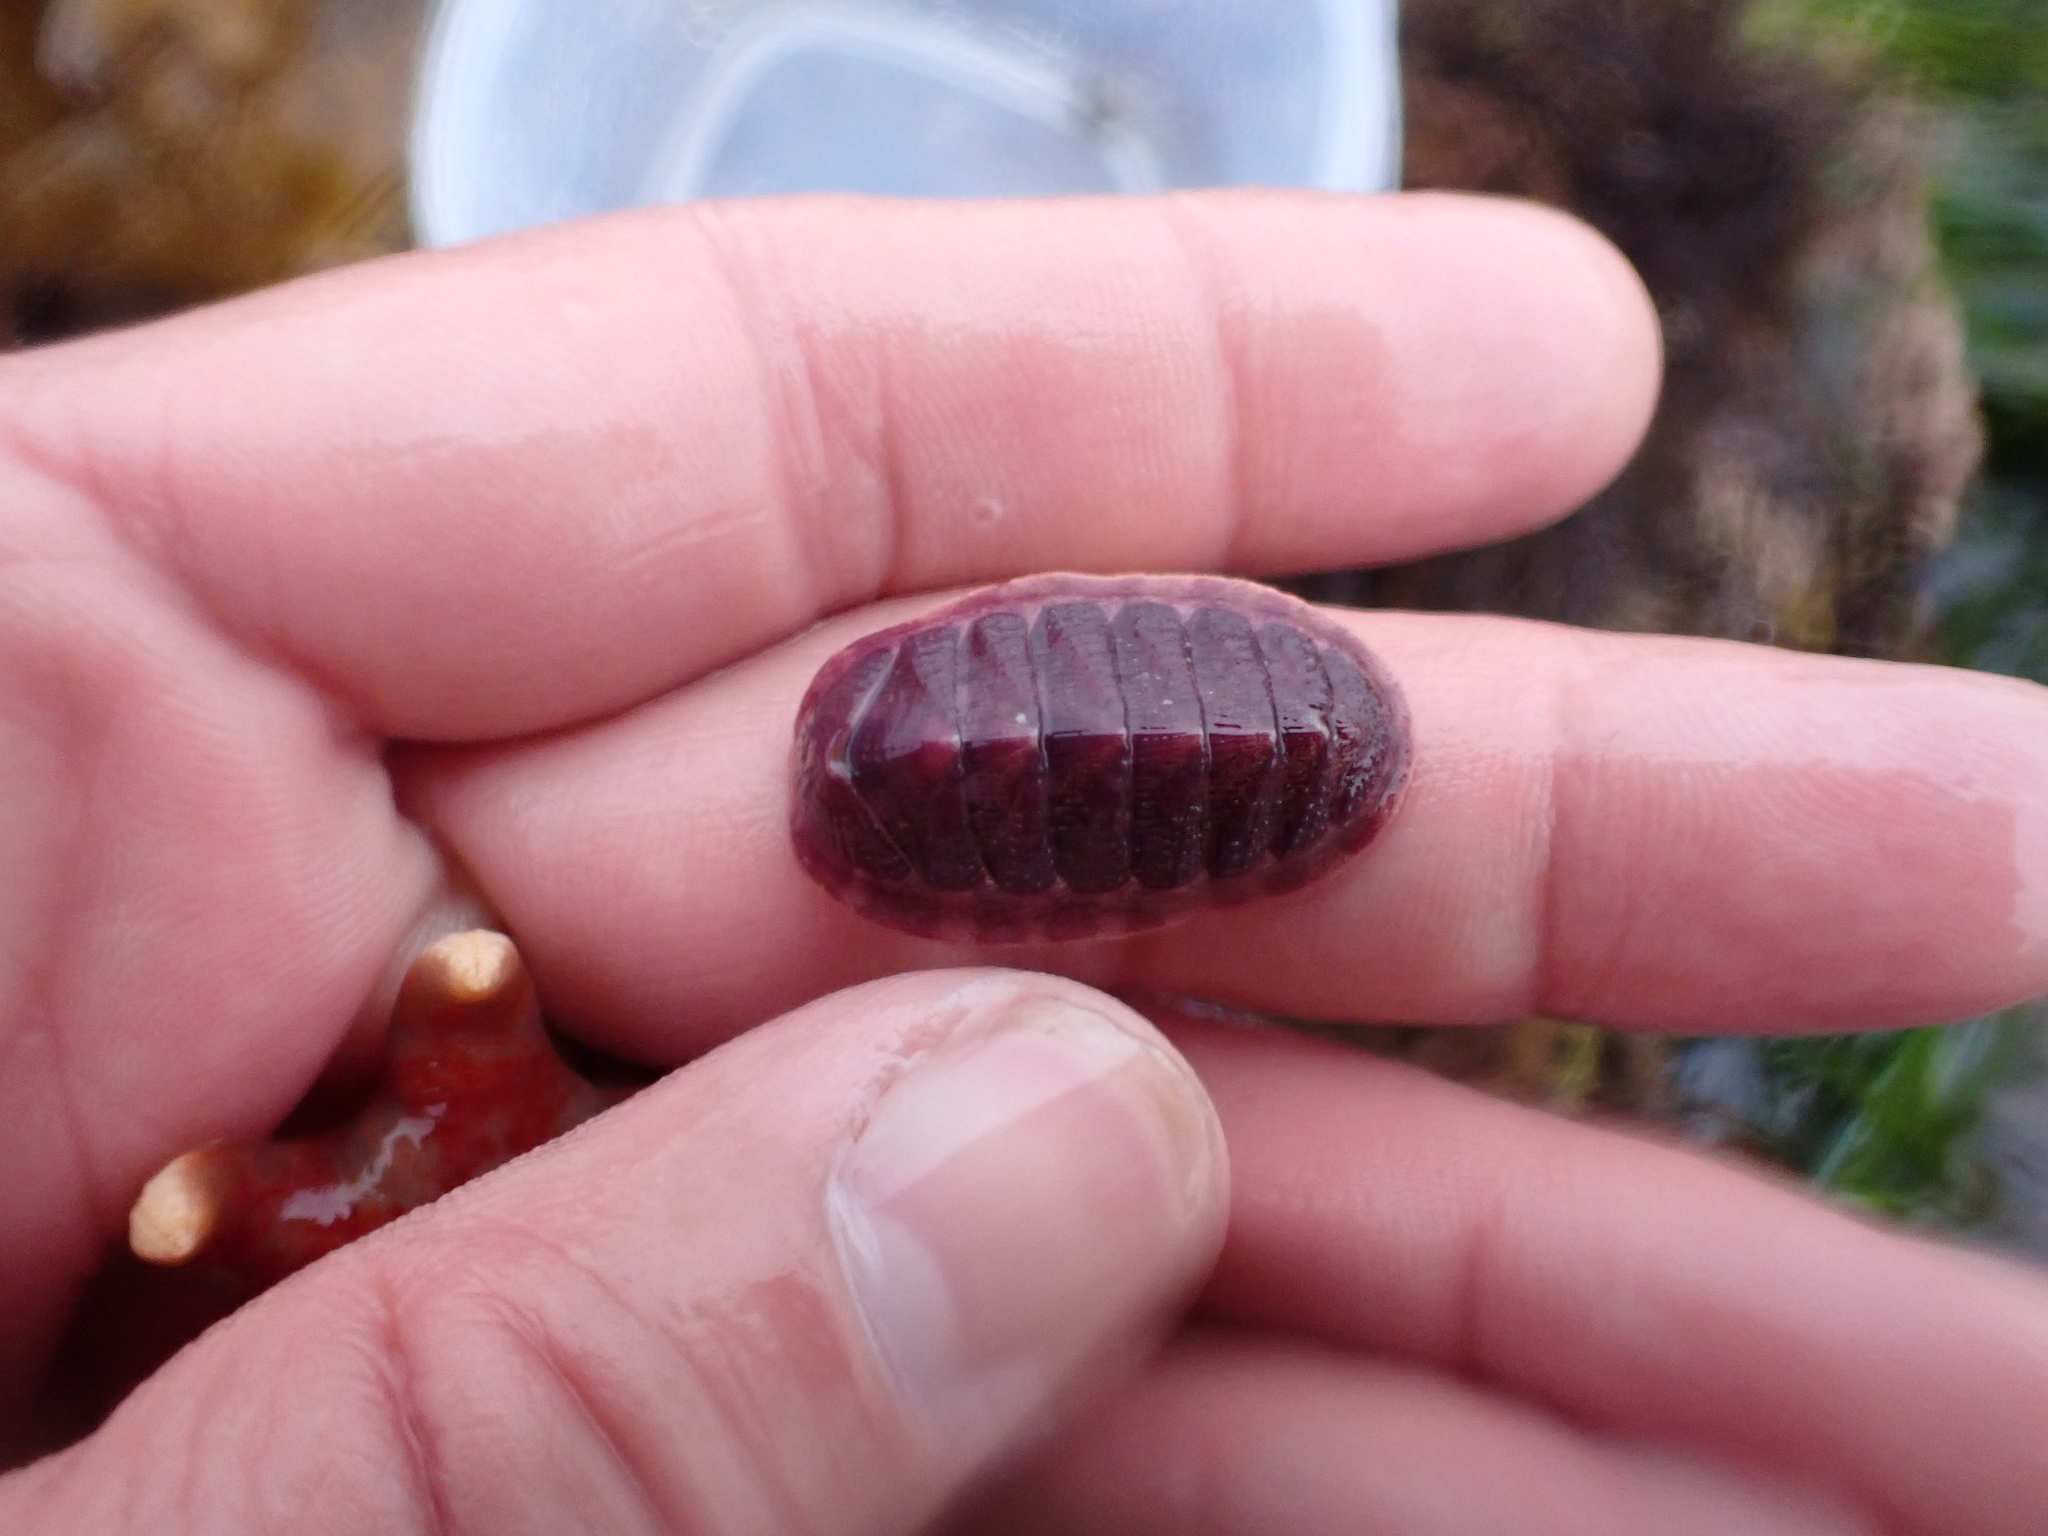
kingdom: Animalia
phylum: Mollusca
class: Polyplacophora
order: Chitonida
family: Ischnochitonidae
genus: Lepidozona
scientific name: Lepidozona mertensii
